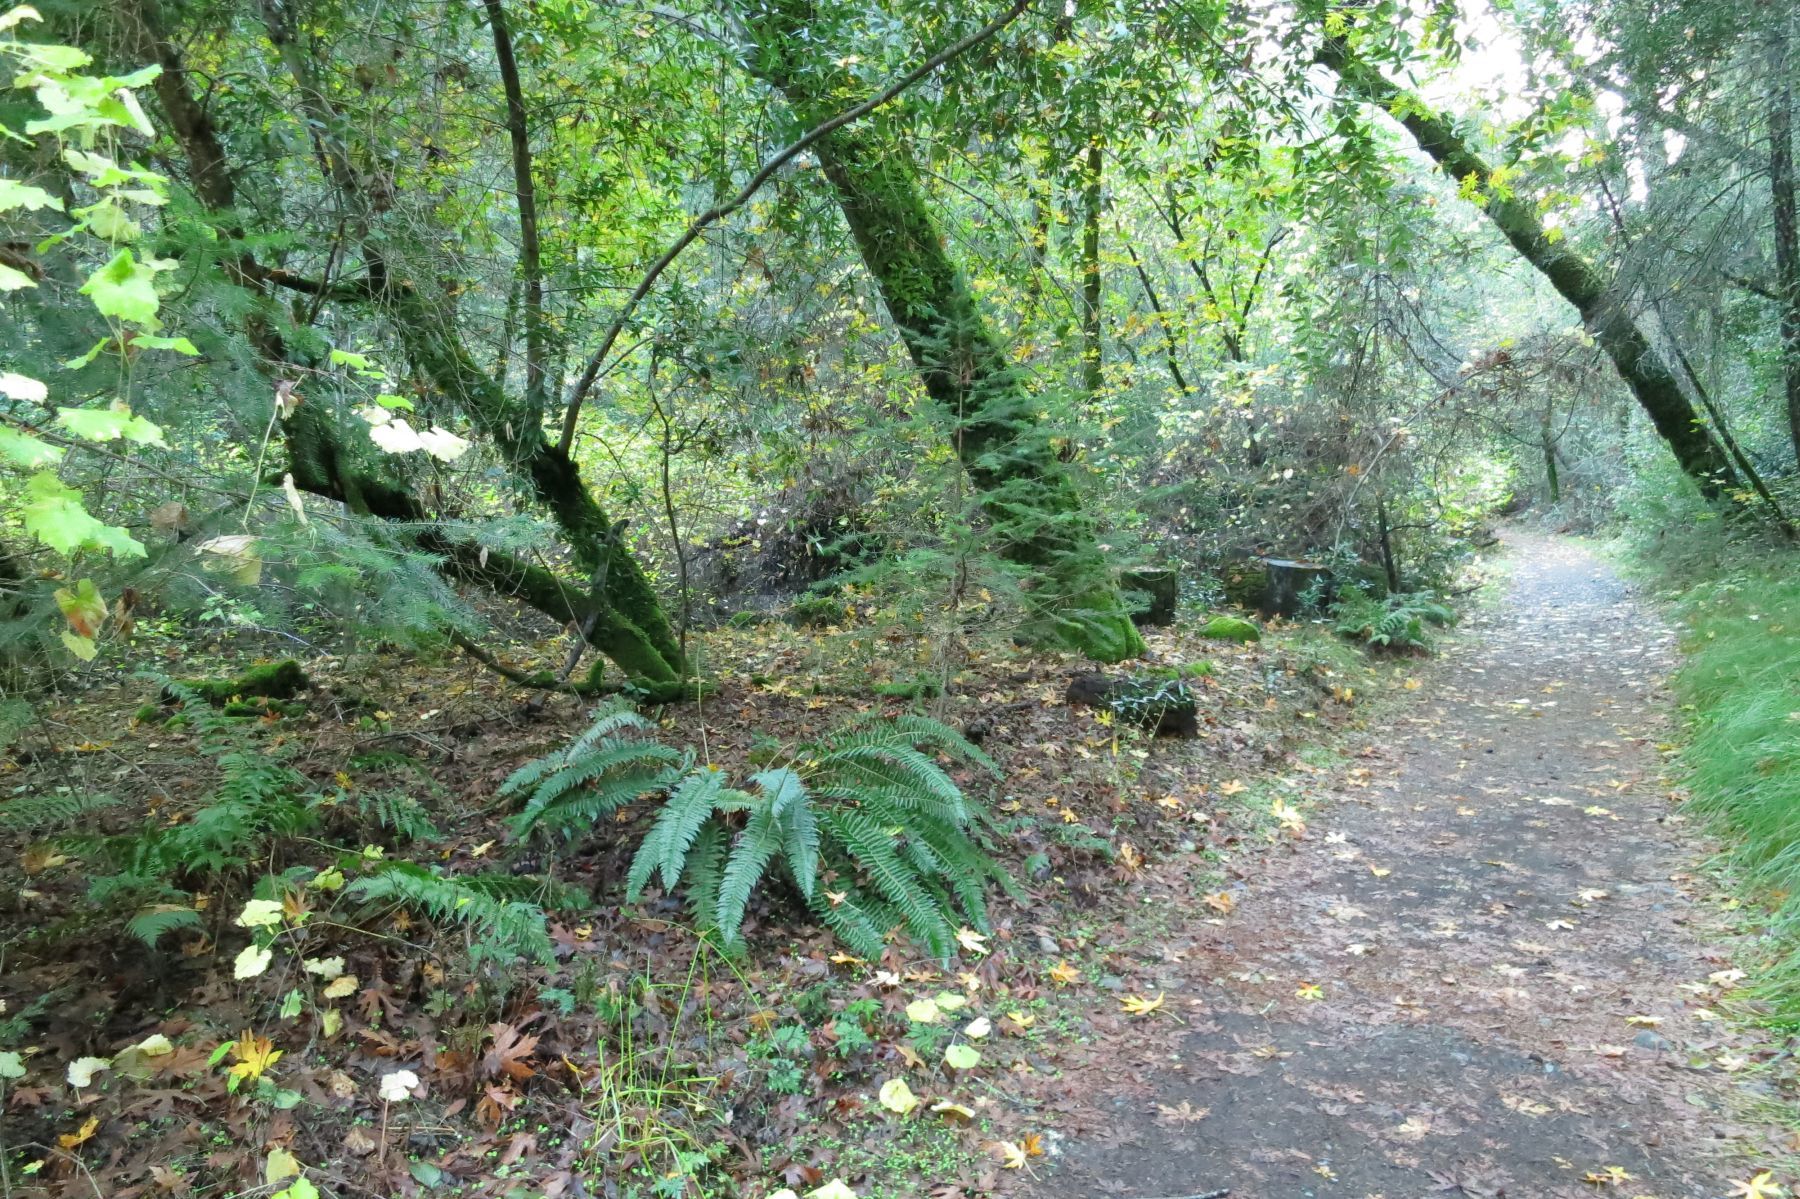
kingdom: Plantae
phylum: Tracheophyta
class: Polypodiopsida
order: Polypodiales
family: Dryopteridaceae
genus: Polystichum
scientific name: Polystichum
